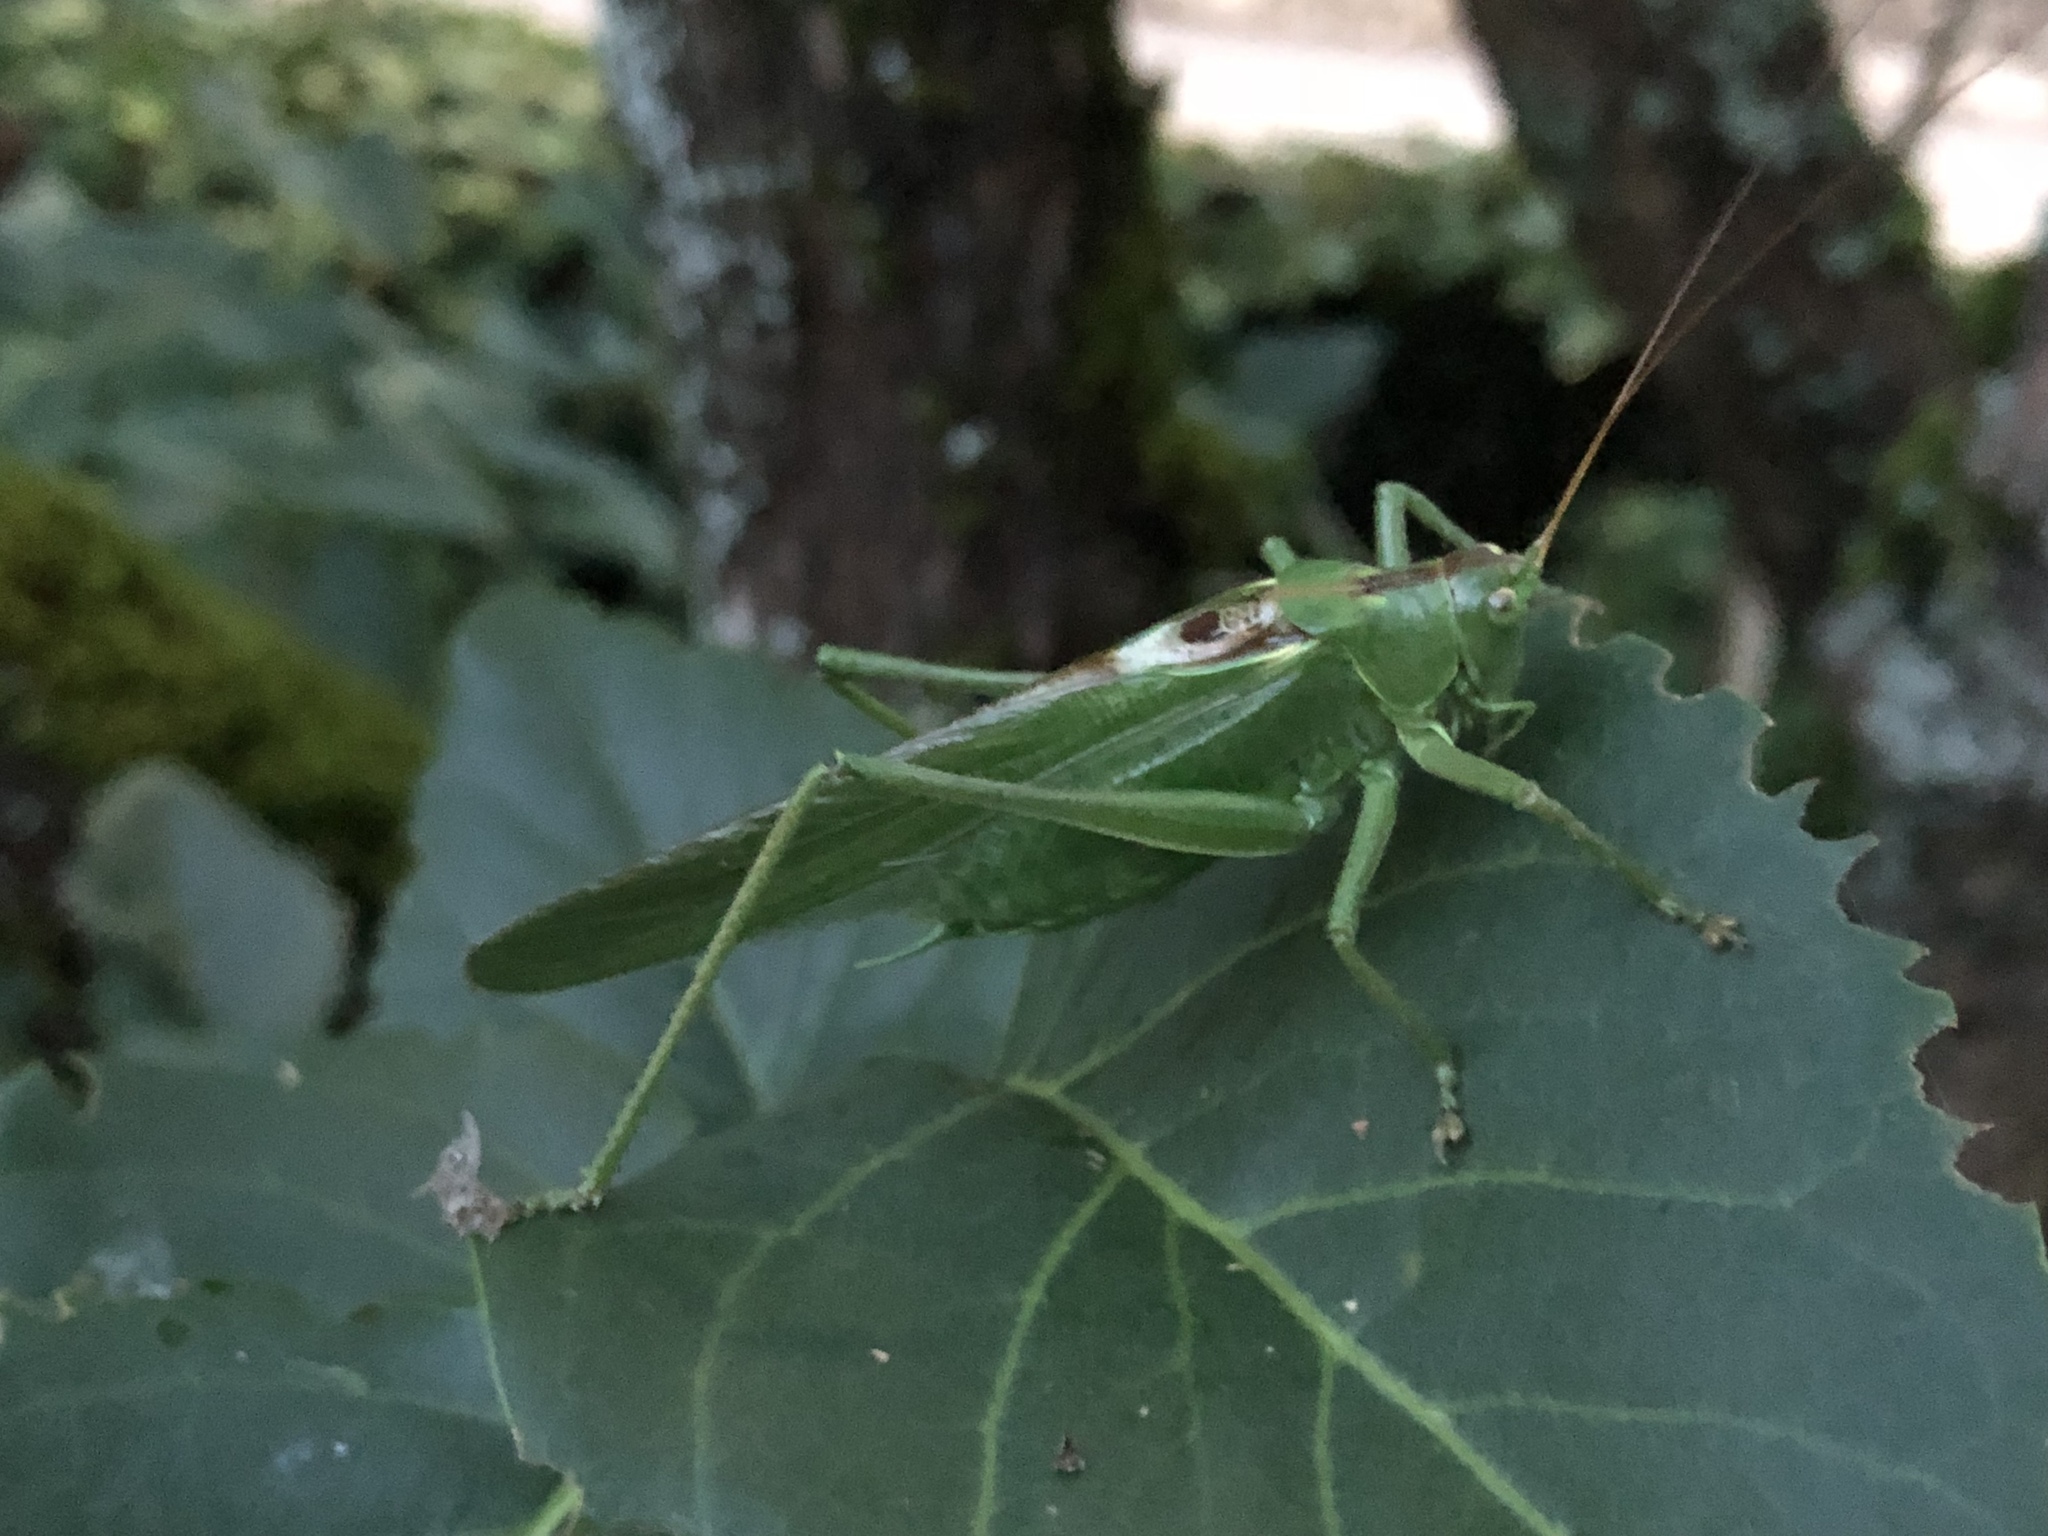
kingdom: Animalia
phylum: Arthropoda
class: Insecta
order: Orthoptera
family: Tettigoniidae
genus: Tettigonia
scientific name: Tettigonia viridissima
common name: Great green bush-cricket
